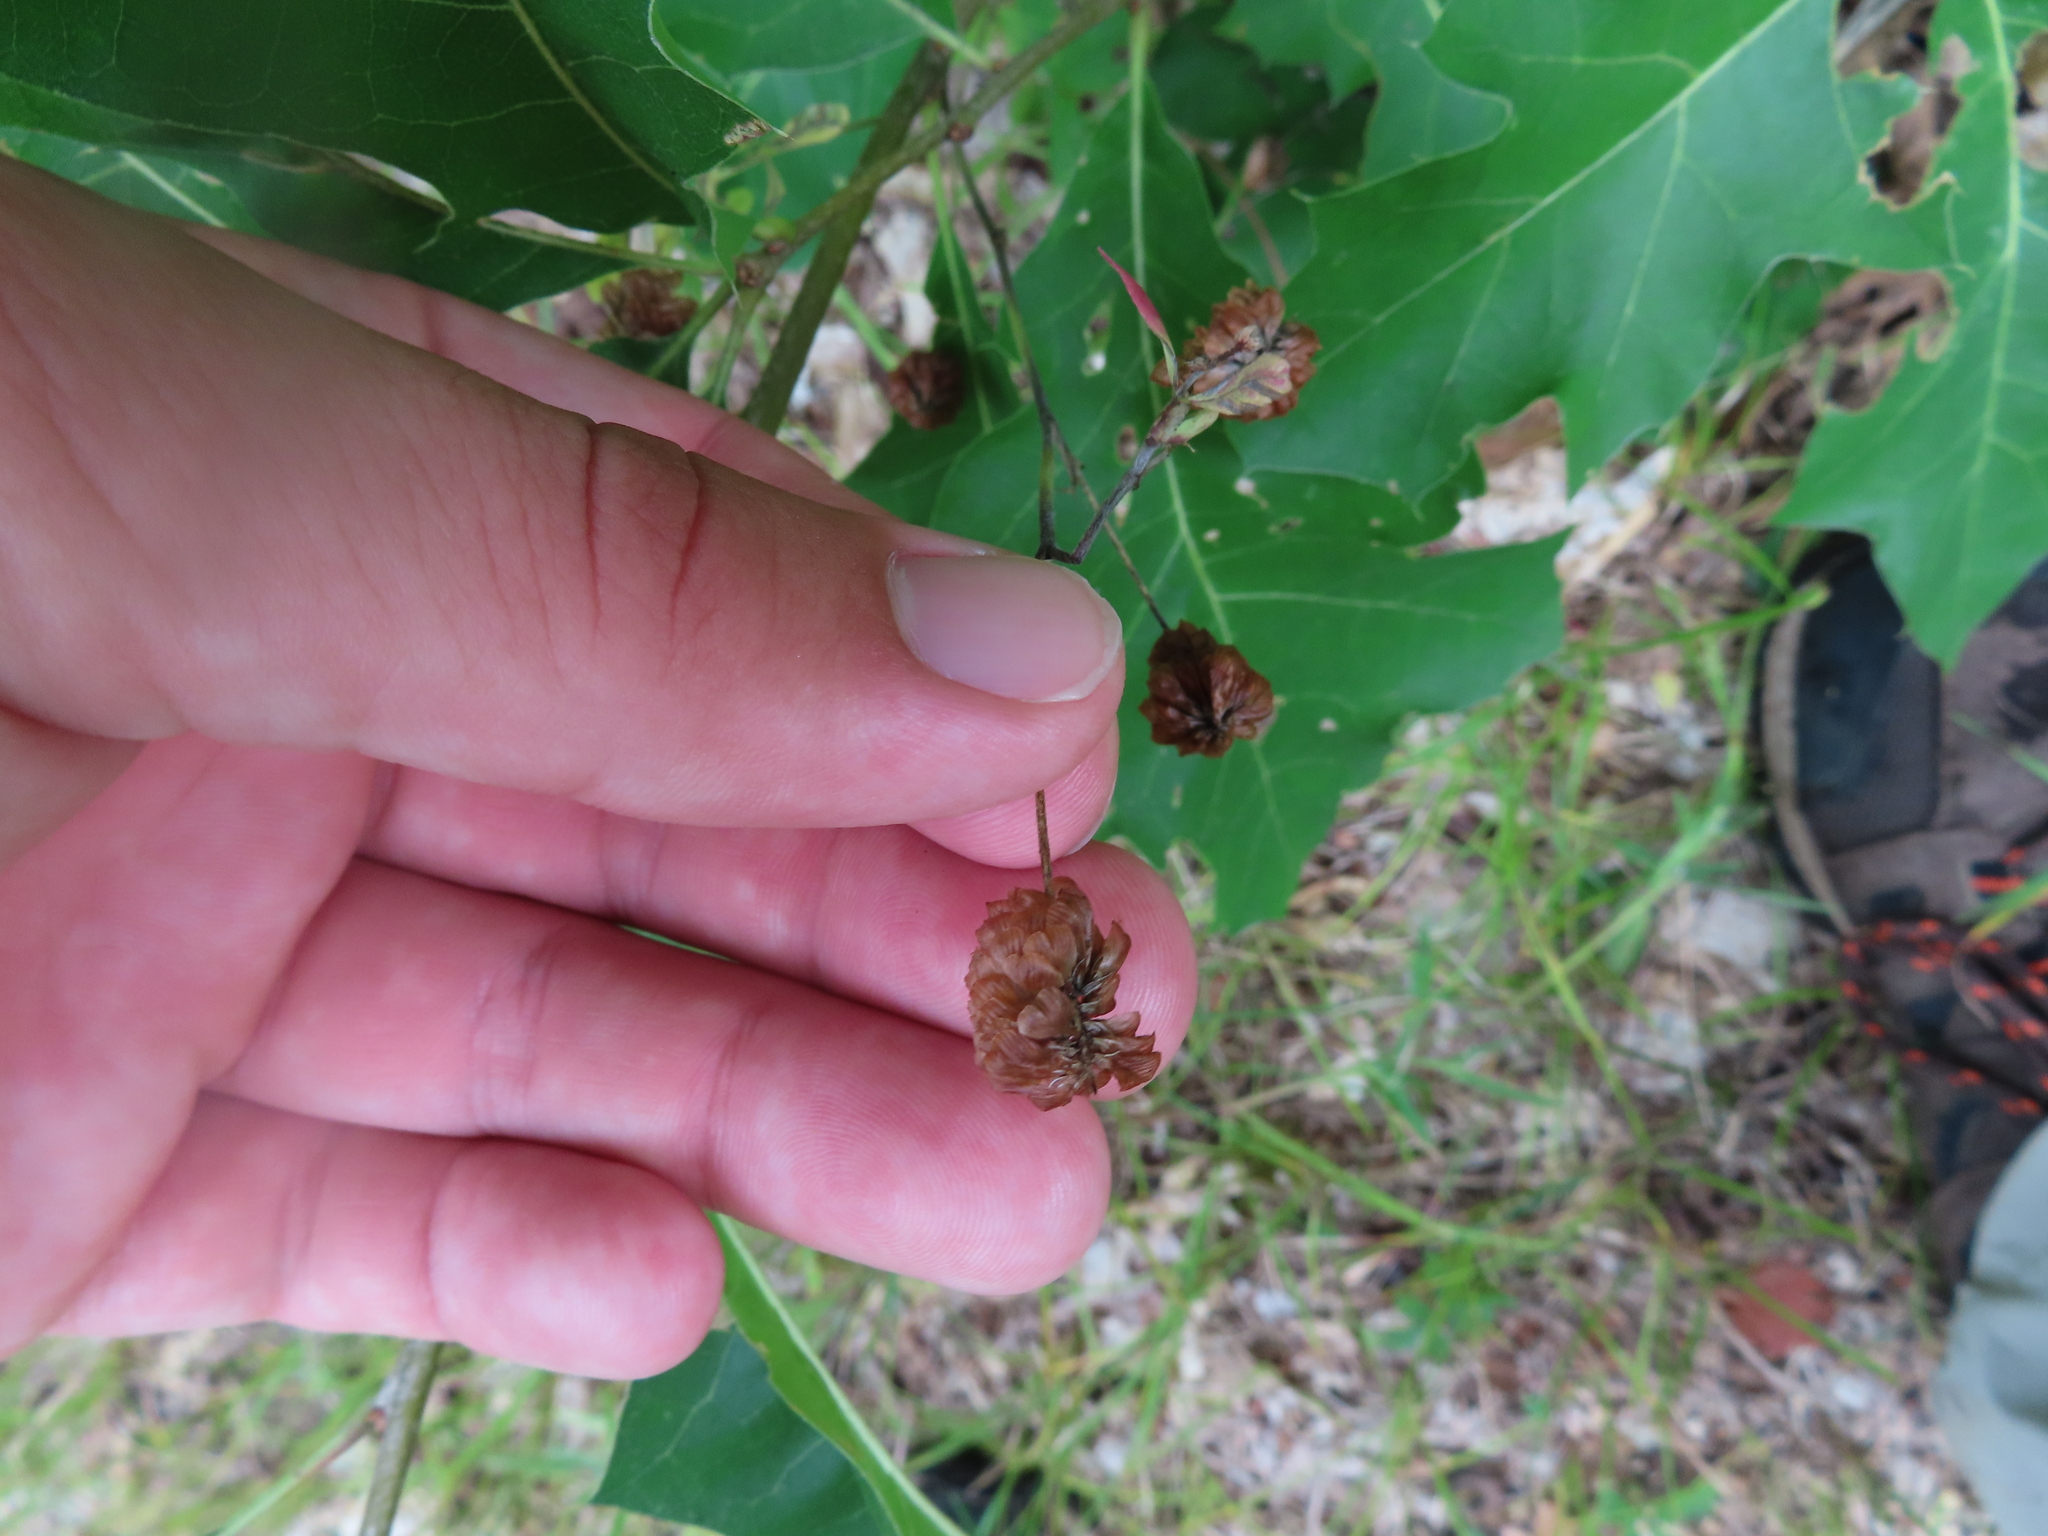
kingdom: Plantae
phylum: Tracheophyta
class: Magnoliopsida
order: Fabales
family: Fabaceae
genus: Trifolium
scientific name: Trifolium aureum
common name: Golden clover
